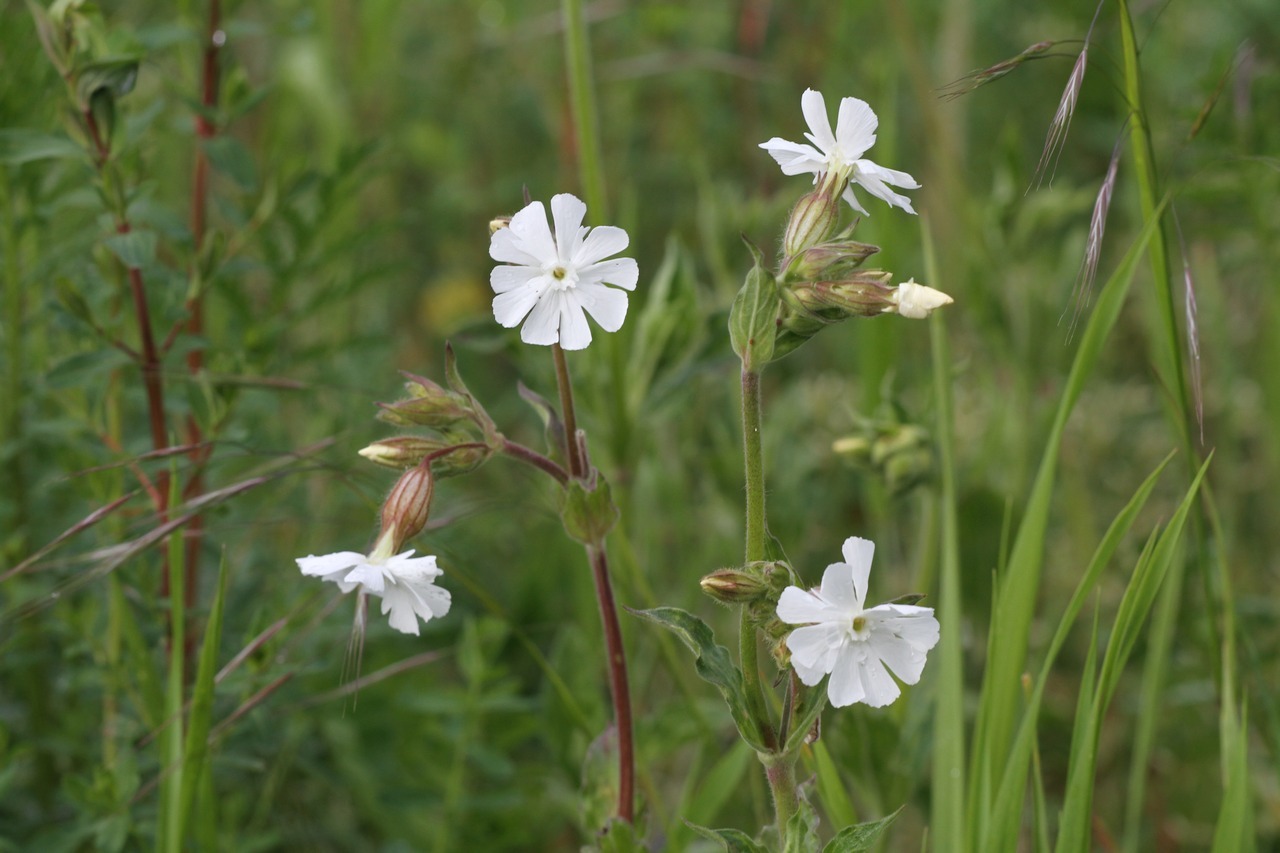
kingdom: Plantae
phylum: Tracheophyta
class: Magnoliopsida
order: Caryophyllales
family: Caryophyllaceae
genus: Silene
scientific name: Silene latifolia
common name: White campion
